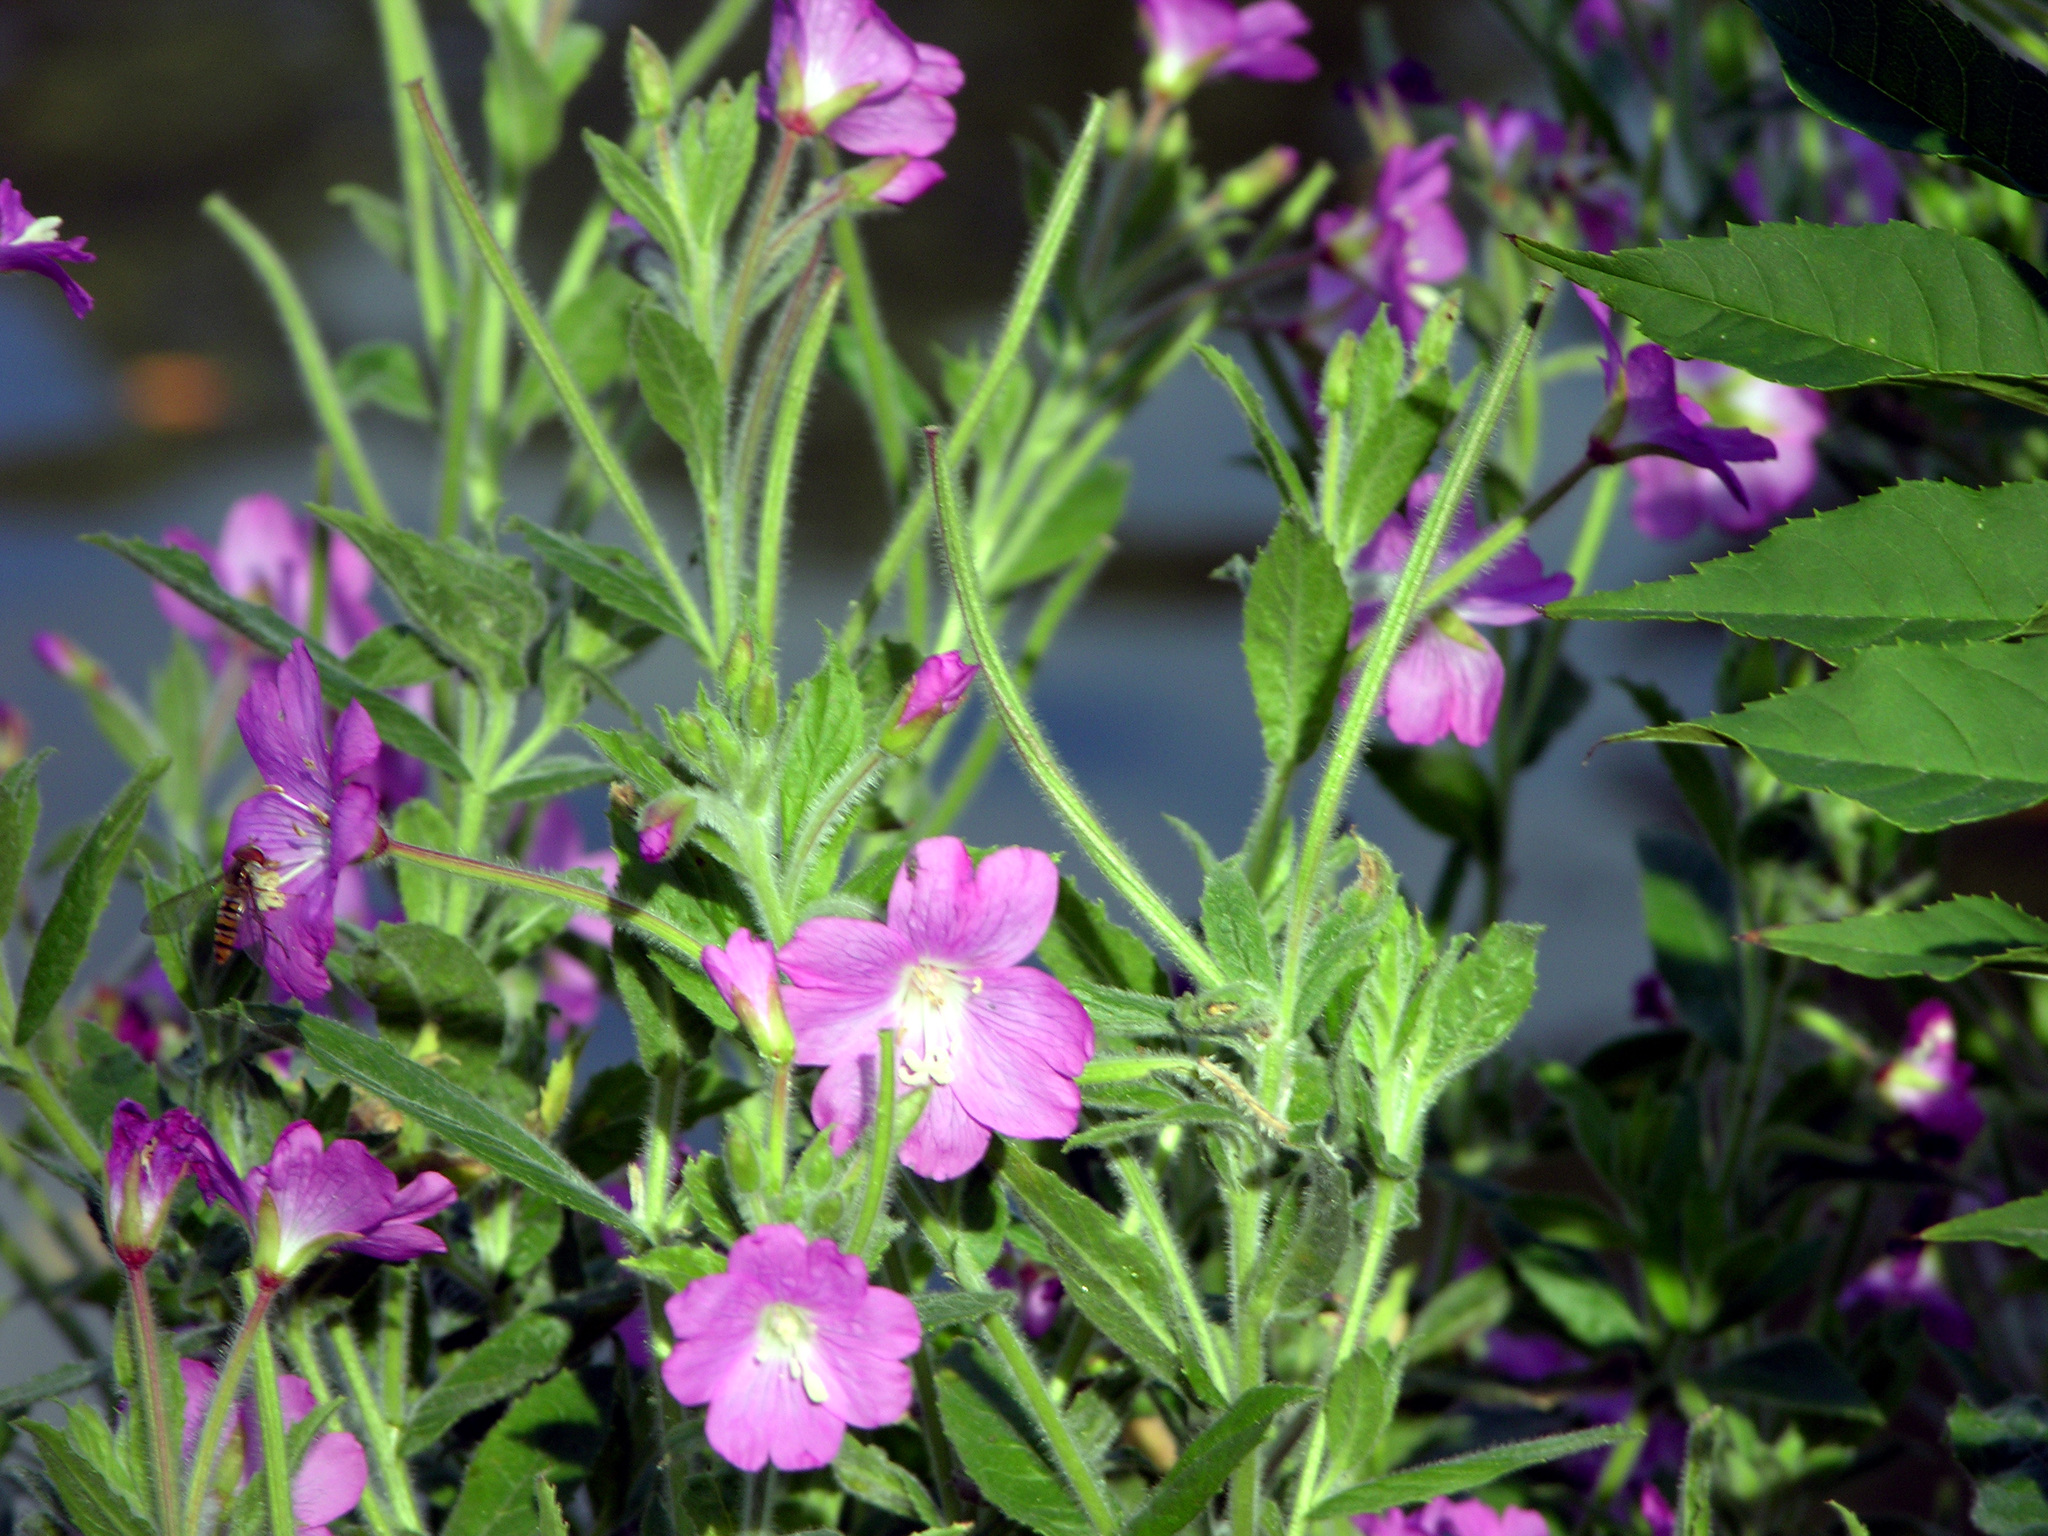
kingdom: Plantae
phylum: Tracheophyta
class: Magnoliopsida
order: Myrtales
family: Onagraceae
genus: Epilobium
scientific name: Epilobium hirsutum
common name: Great willowherb
